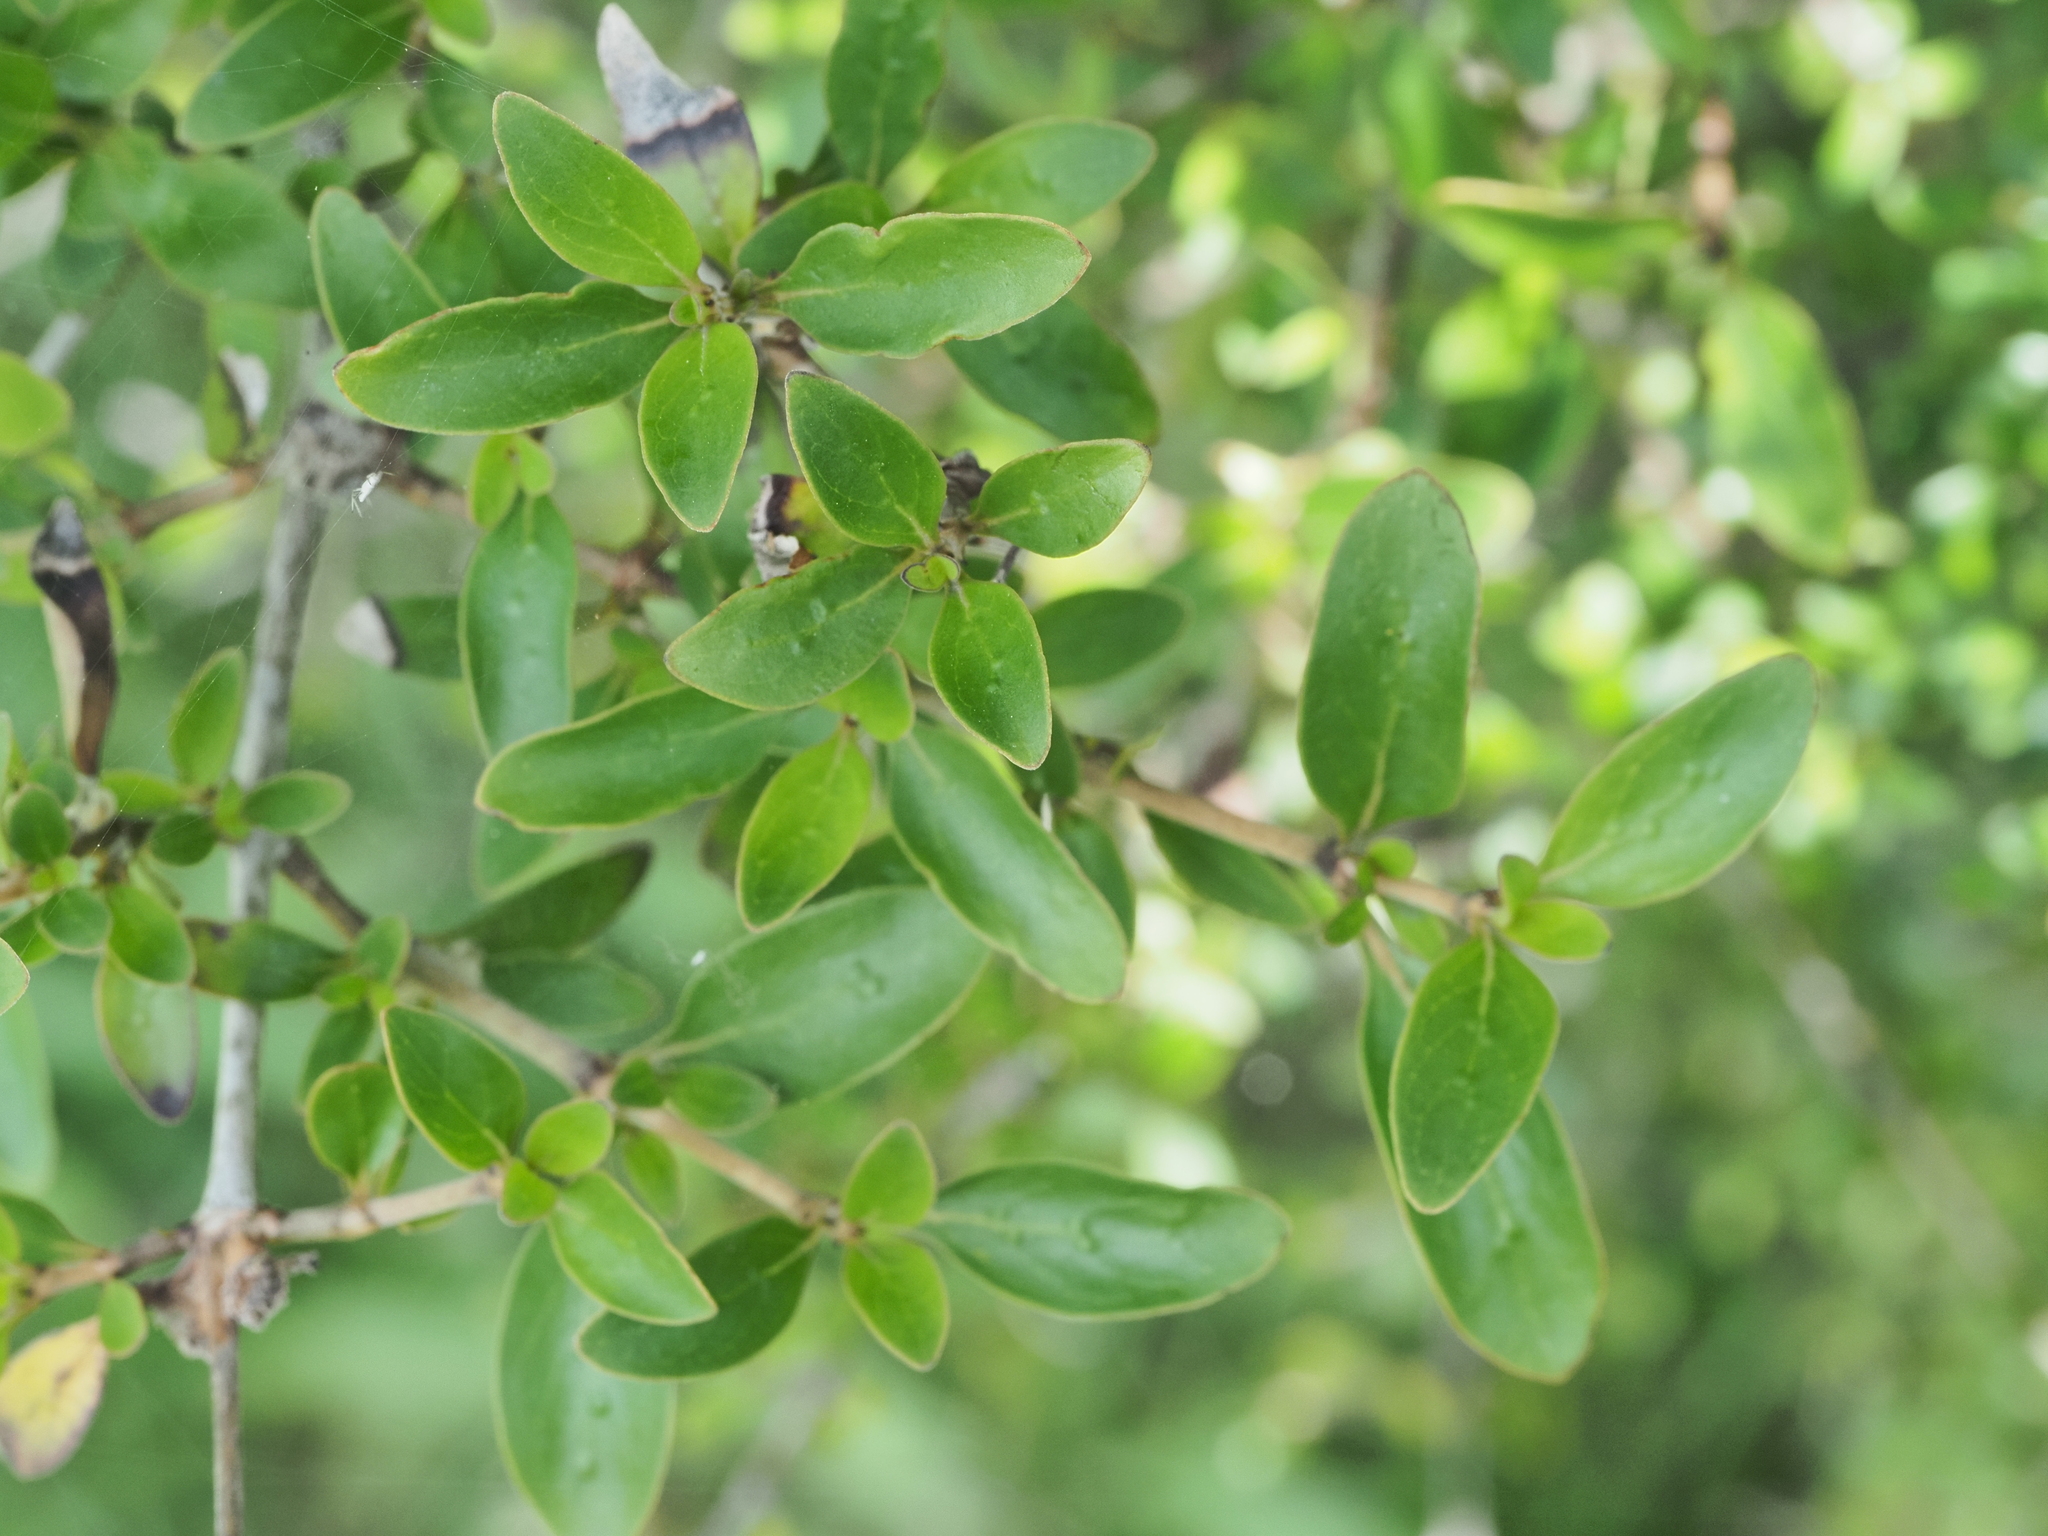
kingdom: Plantae
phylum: Tracheophyta
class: Magnoliopsida
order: Gentianales
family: Rubiaceae
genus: Coprosma
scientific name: Coprosma cunninghamii
